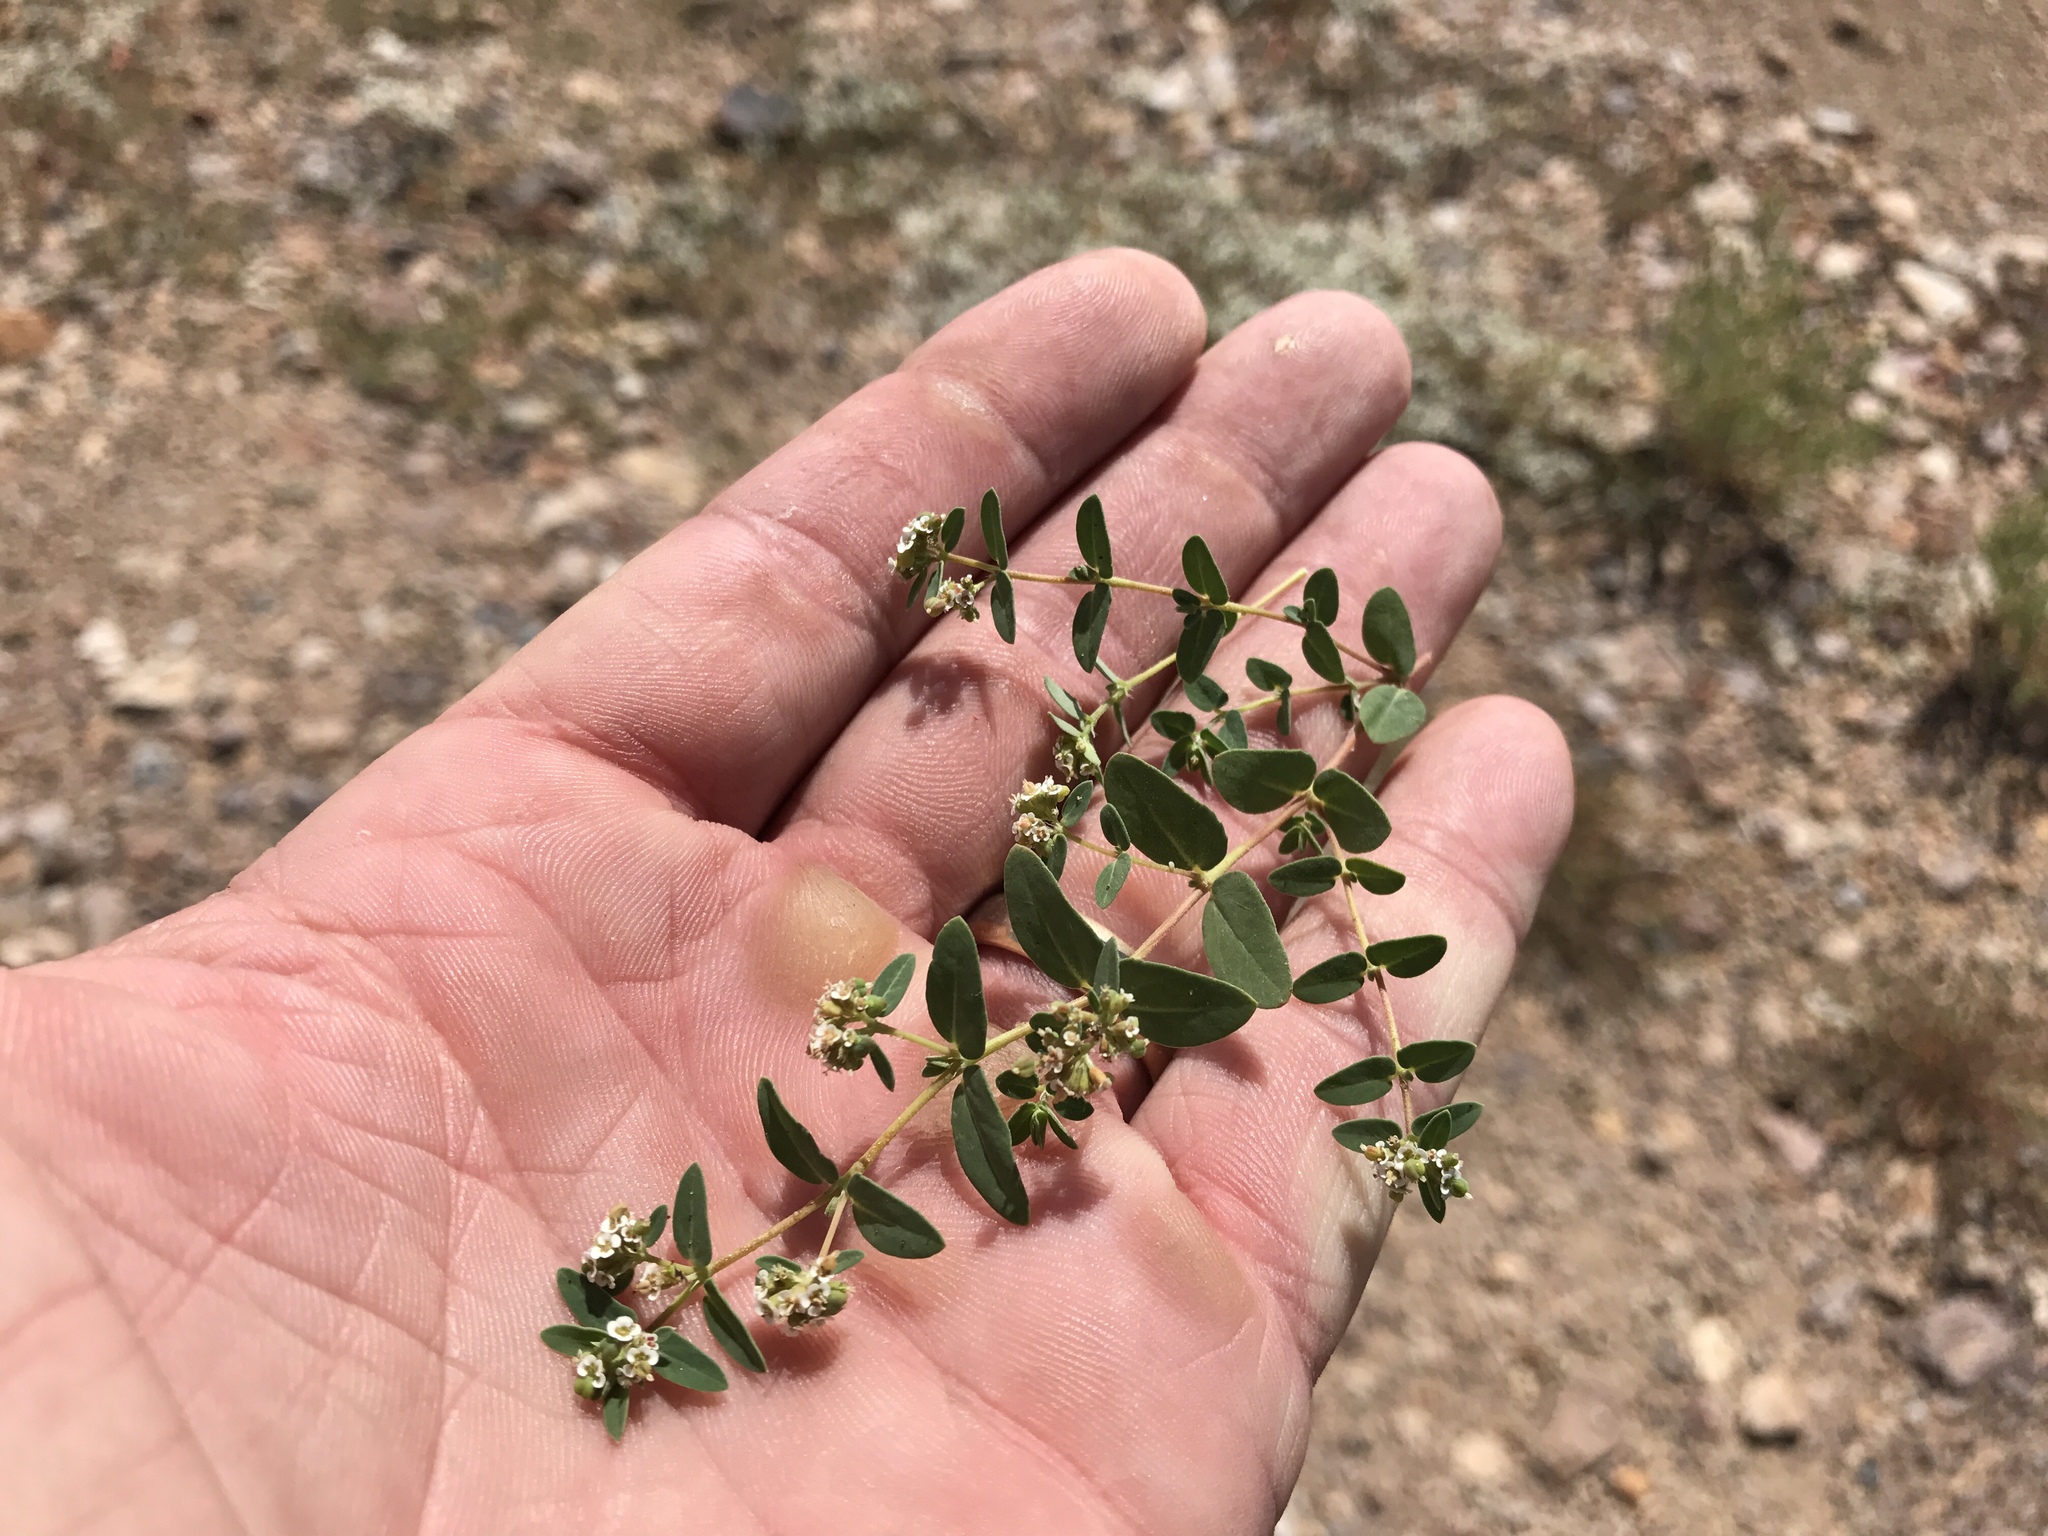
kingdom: Plantae
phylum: Tracheophyta
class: Magnoliopsida
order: Malpighiales
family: Euphorbiaceae
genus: Euphorbia
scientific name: Euphorbia capitellata
